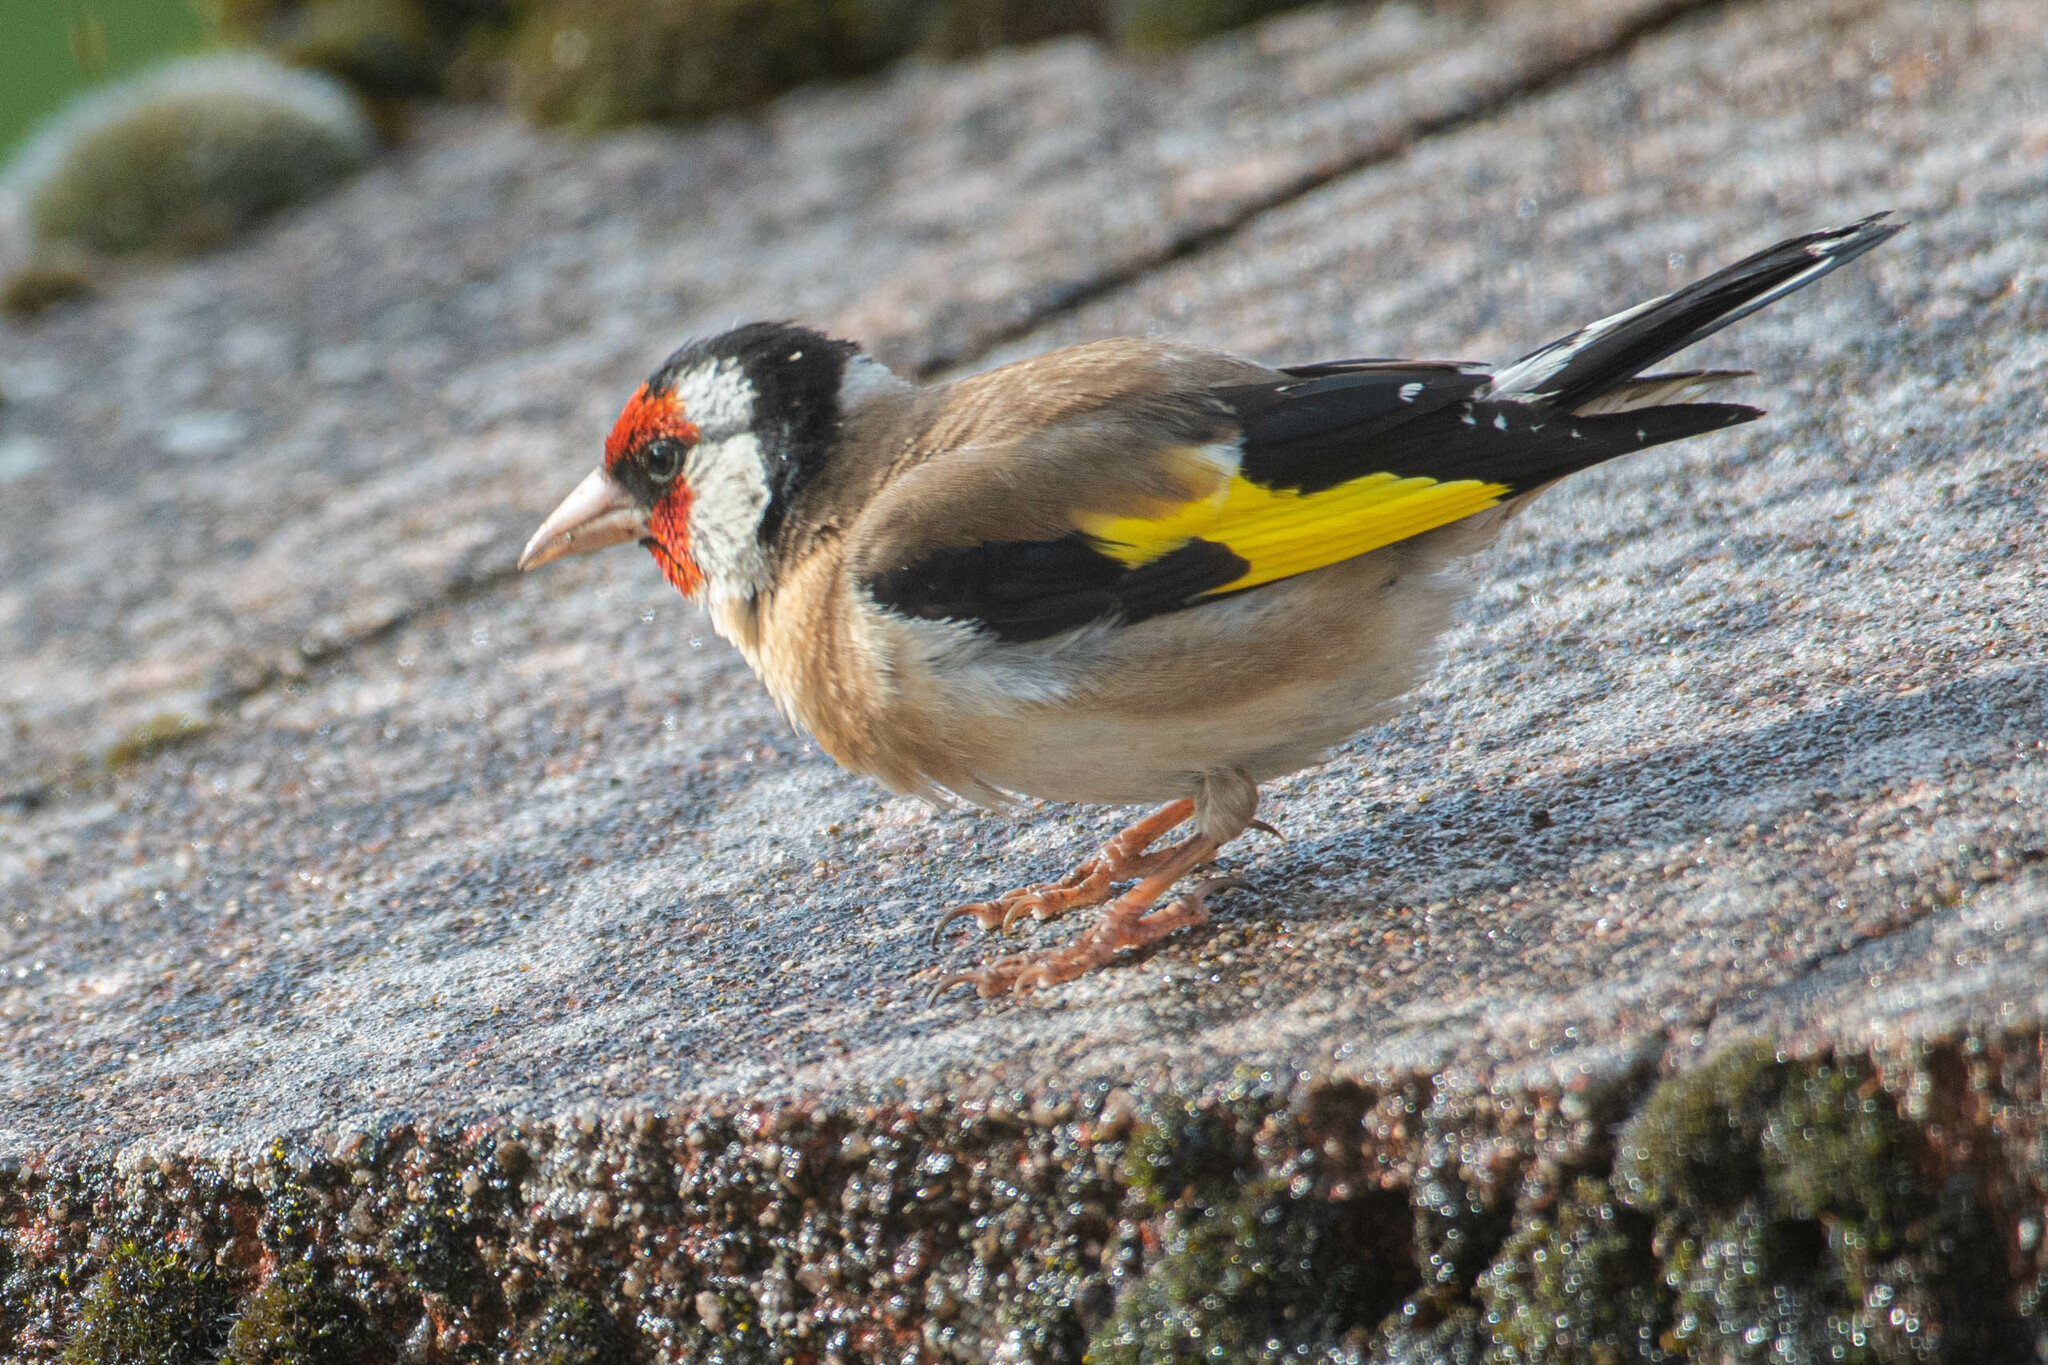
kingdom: Animalia
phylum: Chordata
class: Aves
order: Passeriformes
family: Fringillidae
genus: Carduelis
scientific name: Carduelis carduelis
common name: European goldfinch
